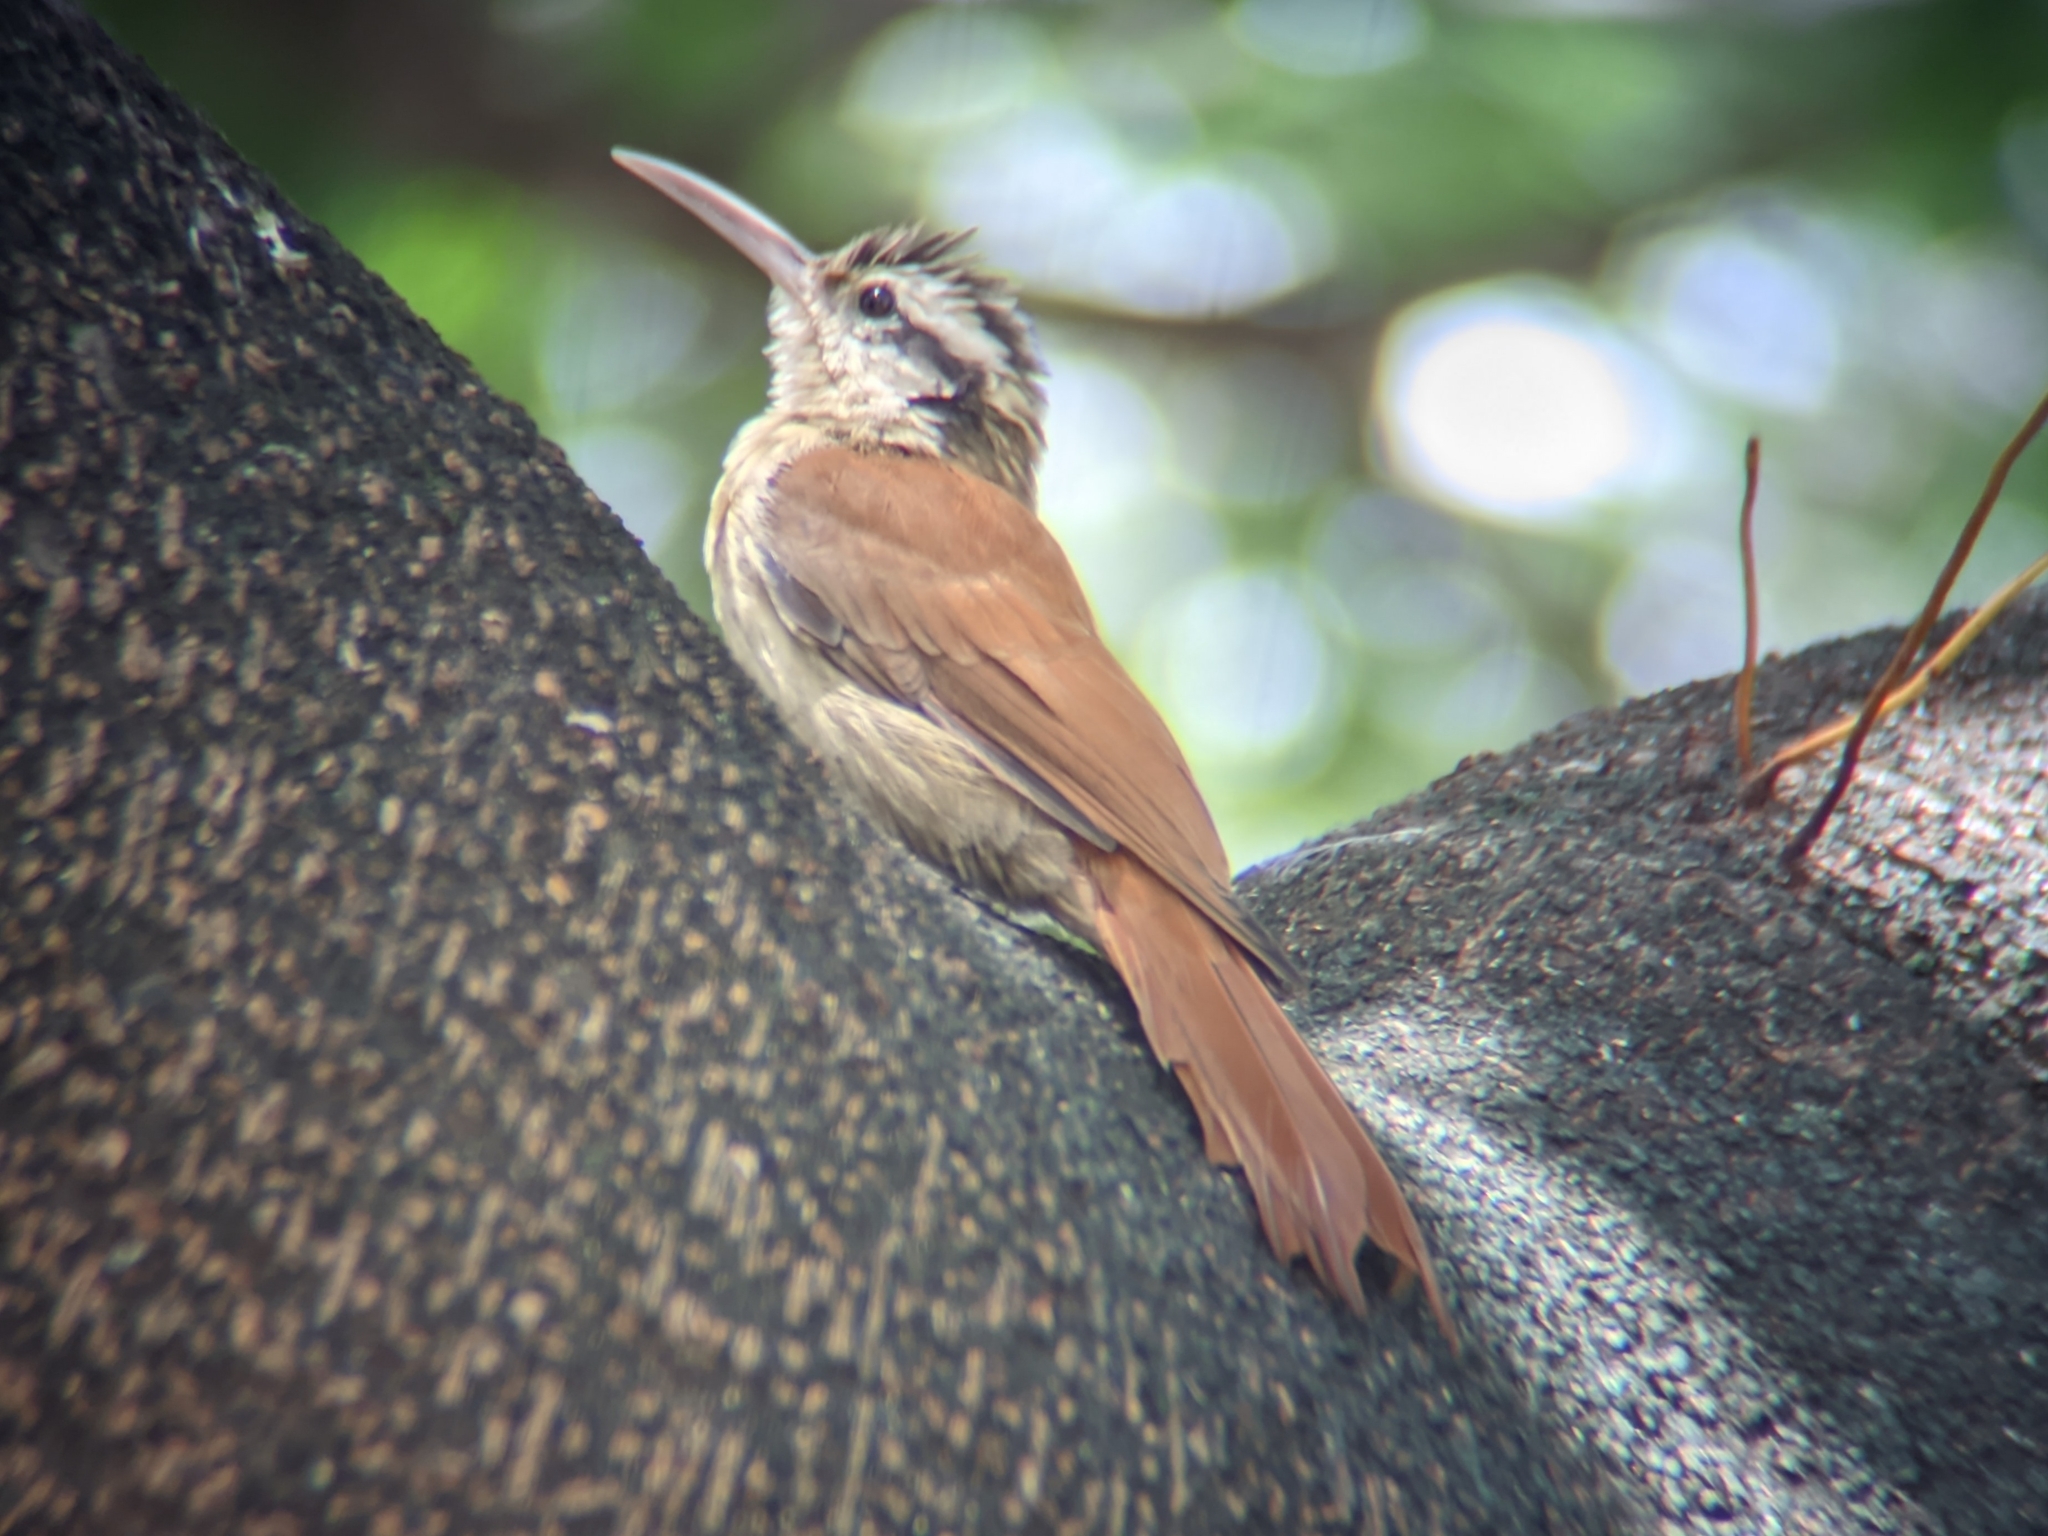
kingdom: Animalia
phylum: Chordata
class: Aves
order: Passeriformes
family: Furnariidae
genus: Lepidocolaptes
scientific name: Lepidocolaptes angustirostris
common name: Narrow-billed woodcreeper
